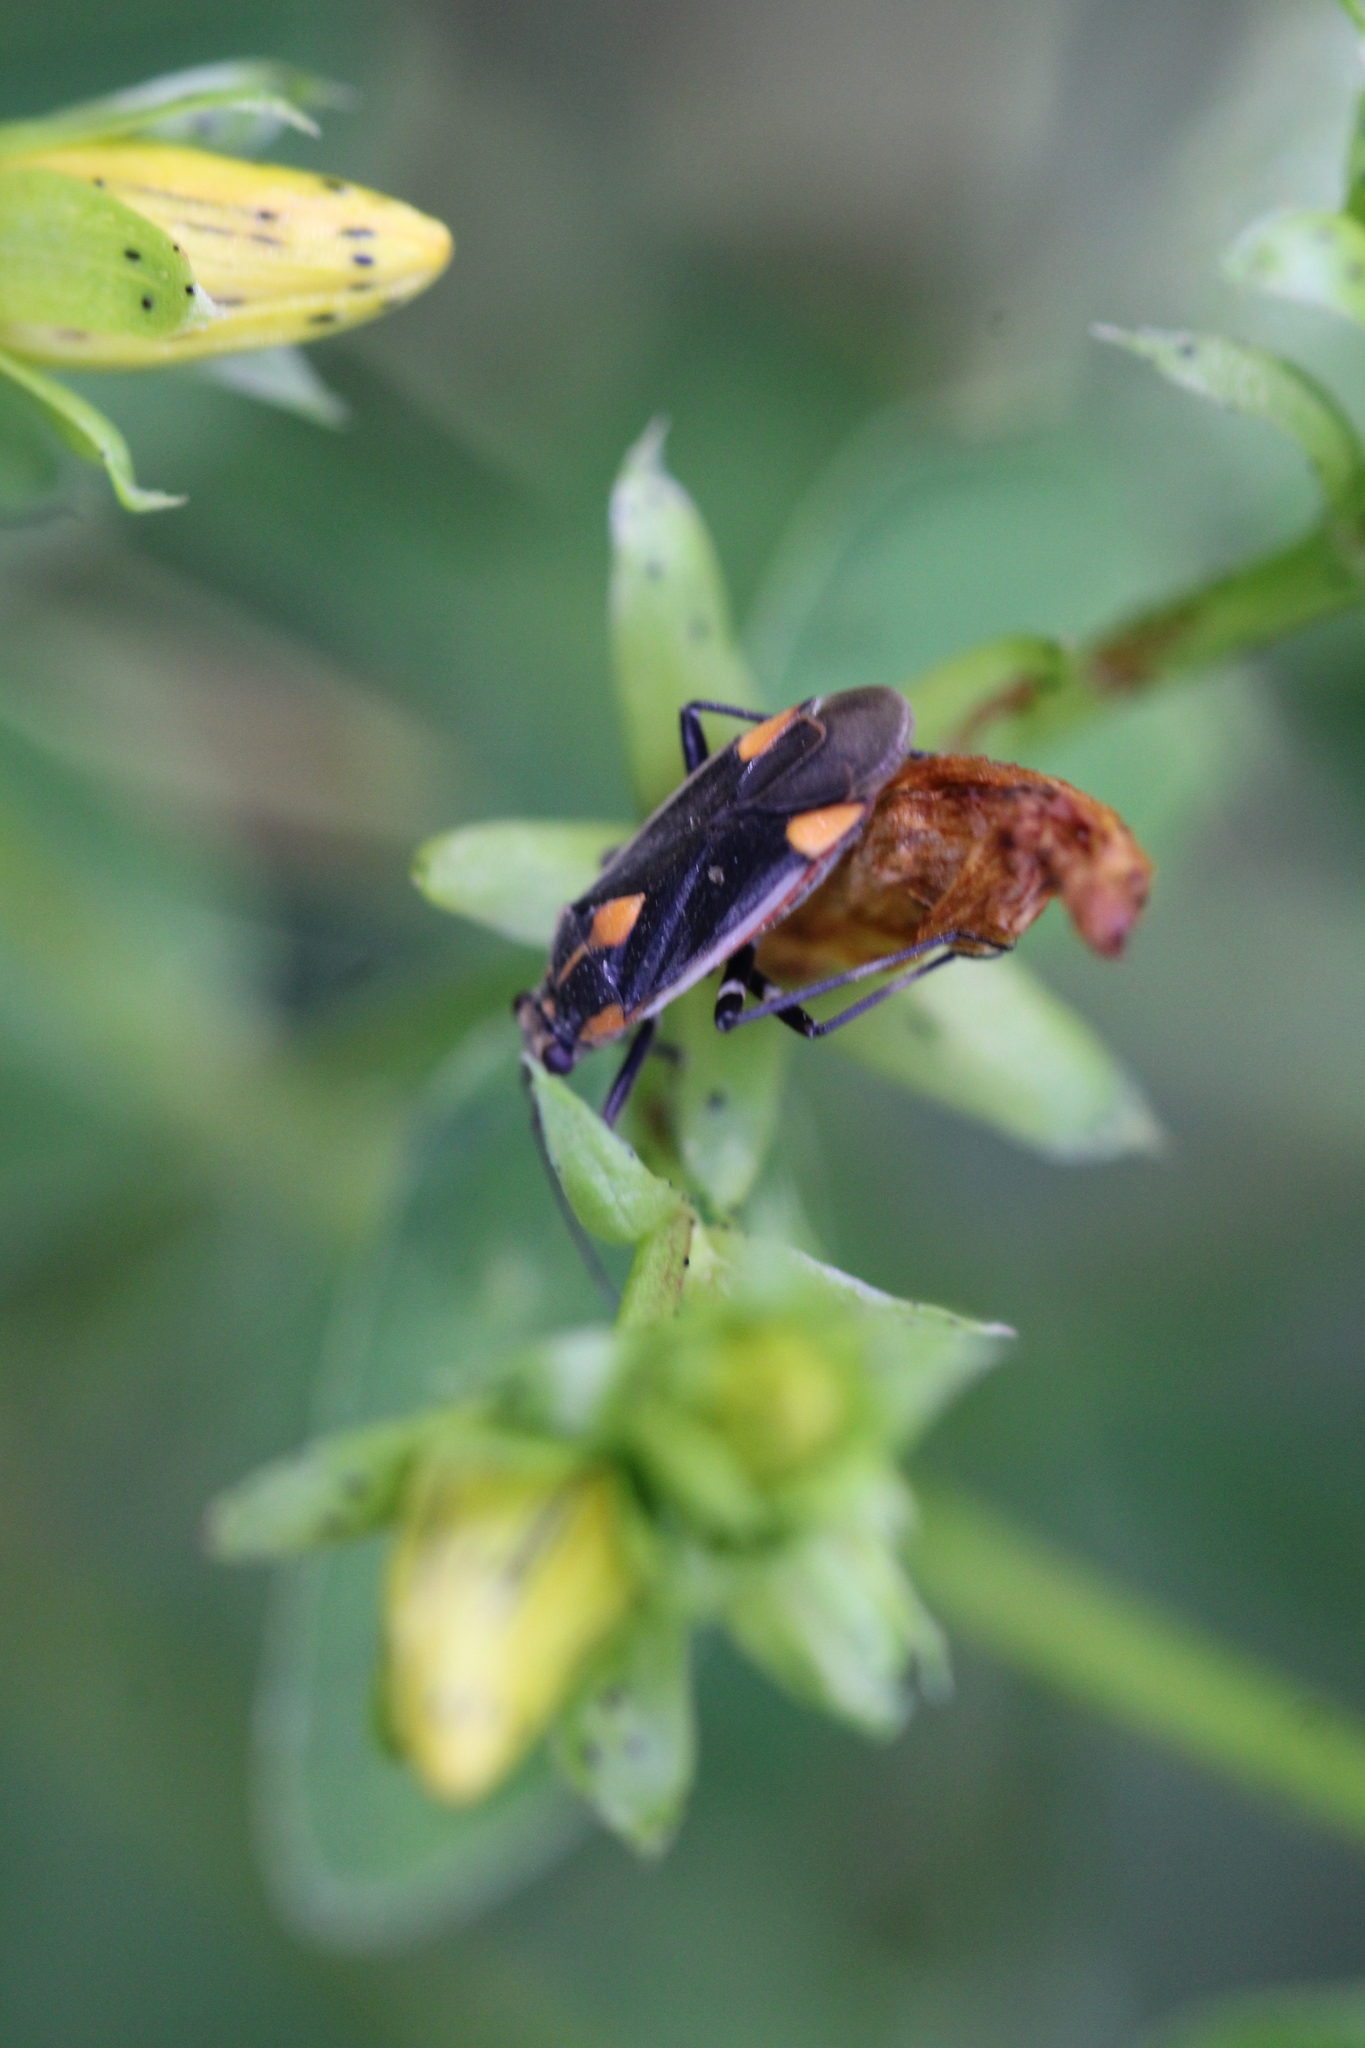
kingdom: Animalia
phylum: Arthropoda
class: Insecta
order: Hemiptera
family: Miridae
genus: Capsodes
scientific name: Capsodes flavomarginatus
